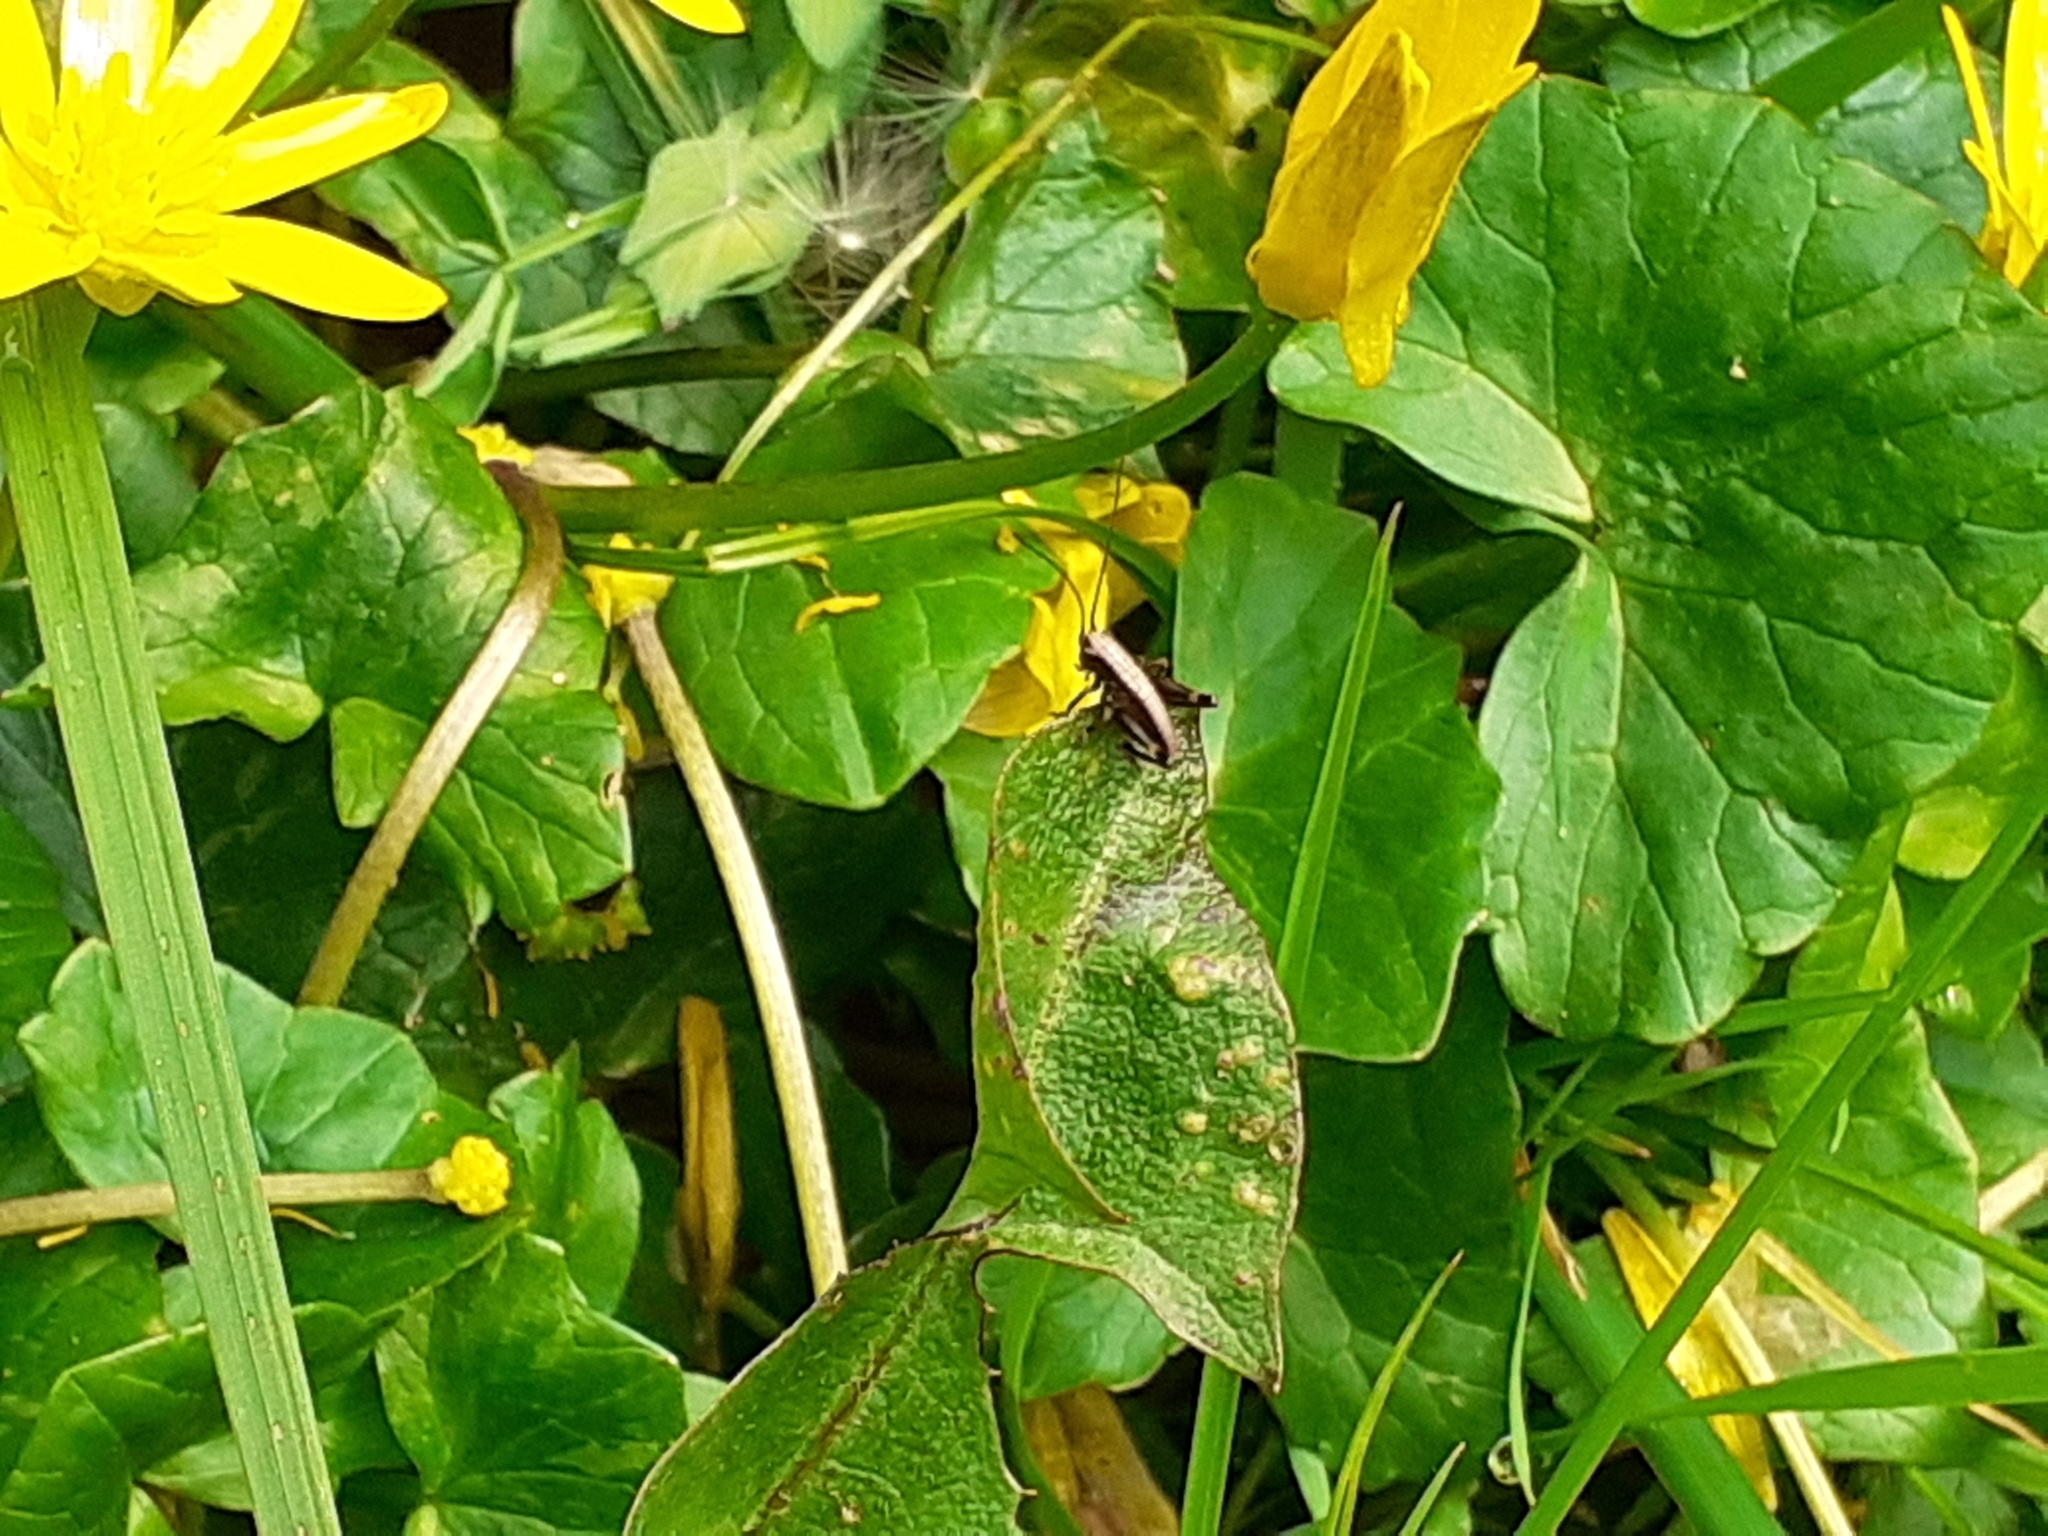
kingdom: Animalia
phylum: Arthropoda
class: Insecta
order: Orthoptera
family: Tettigoniidae
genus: Pholidoptera
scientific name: Pholidoptera griseoaptera
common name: Dark bush-cricket
